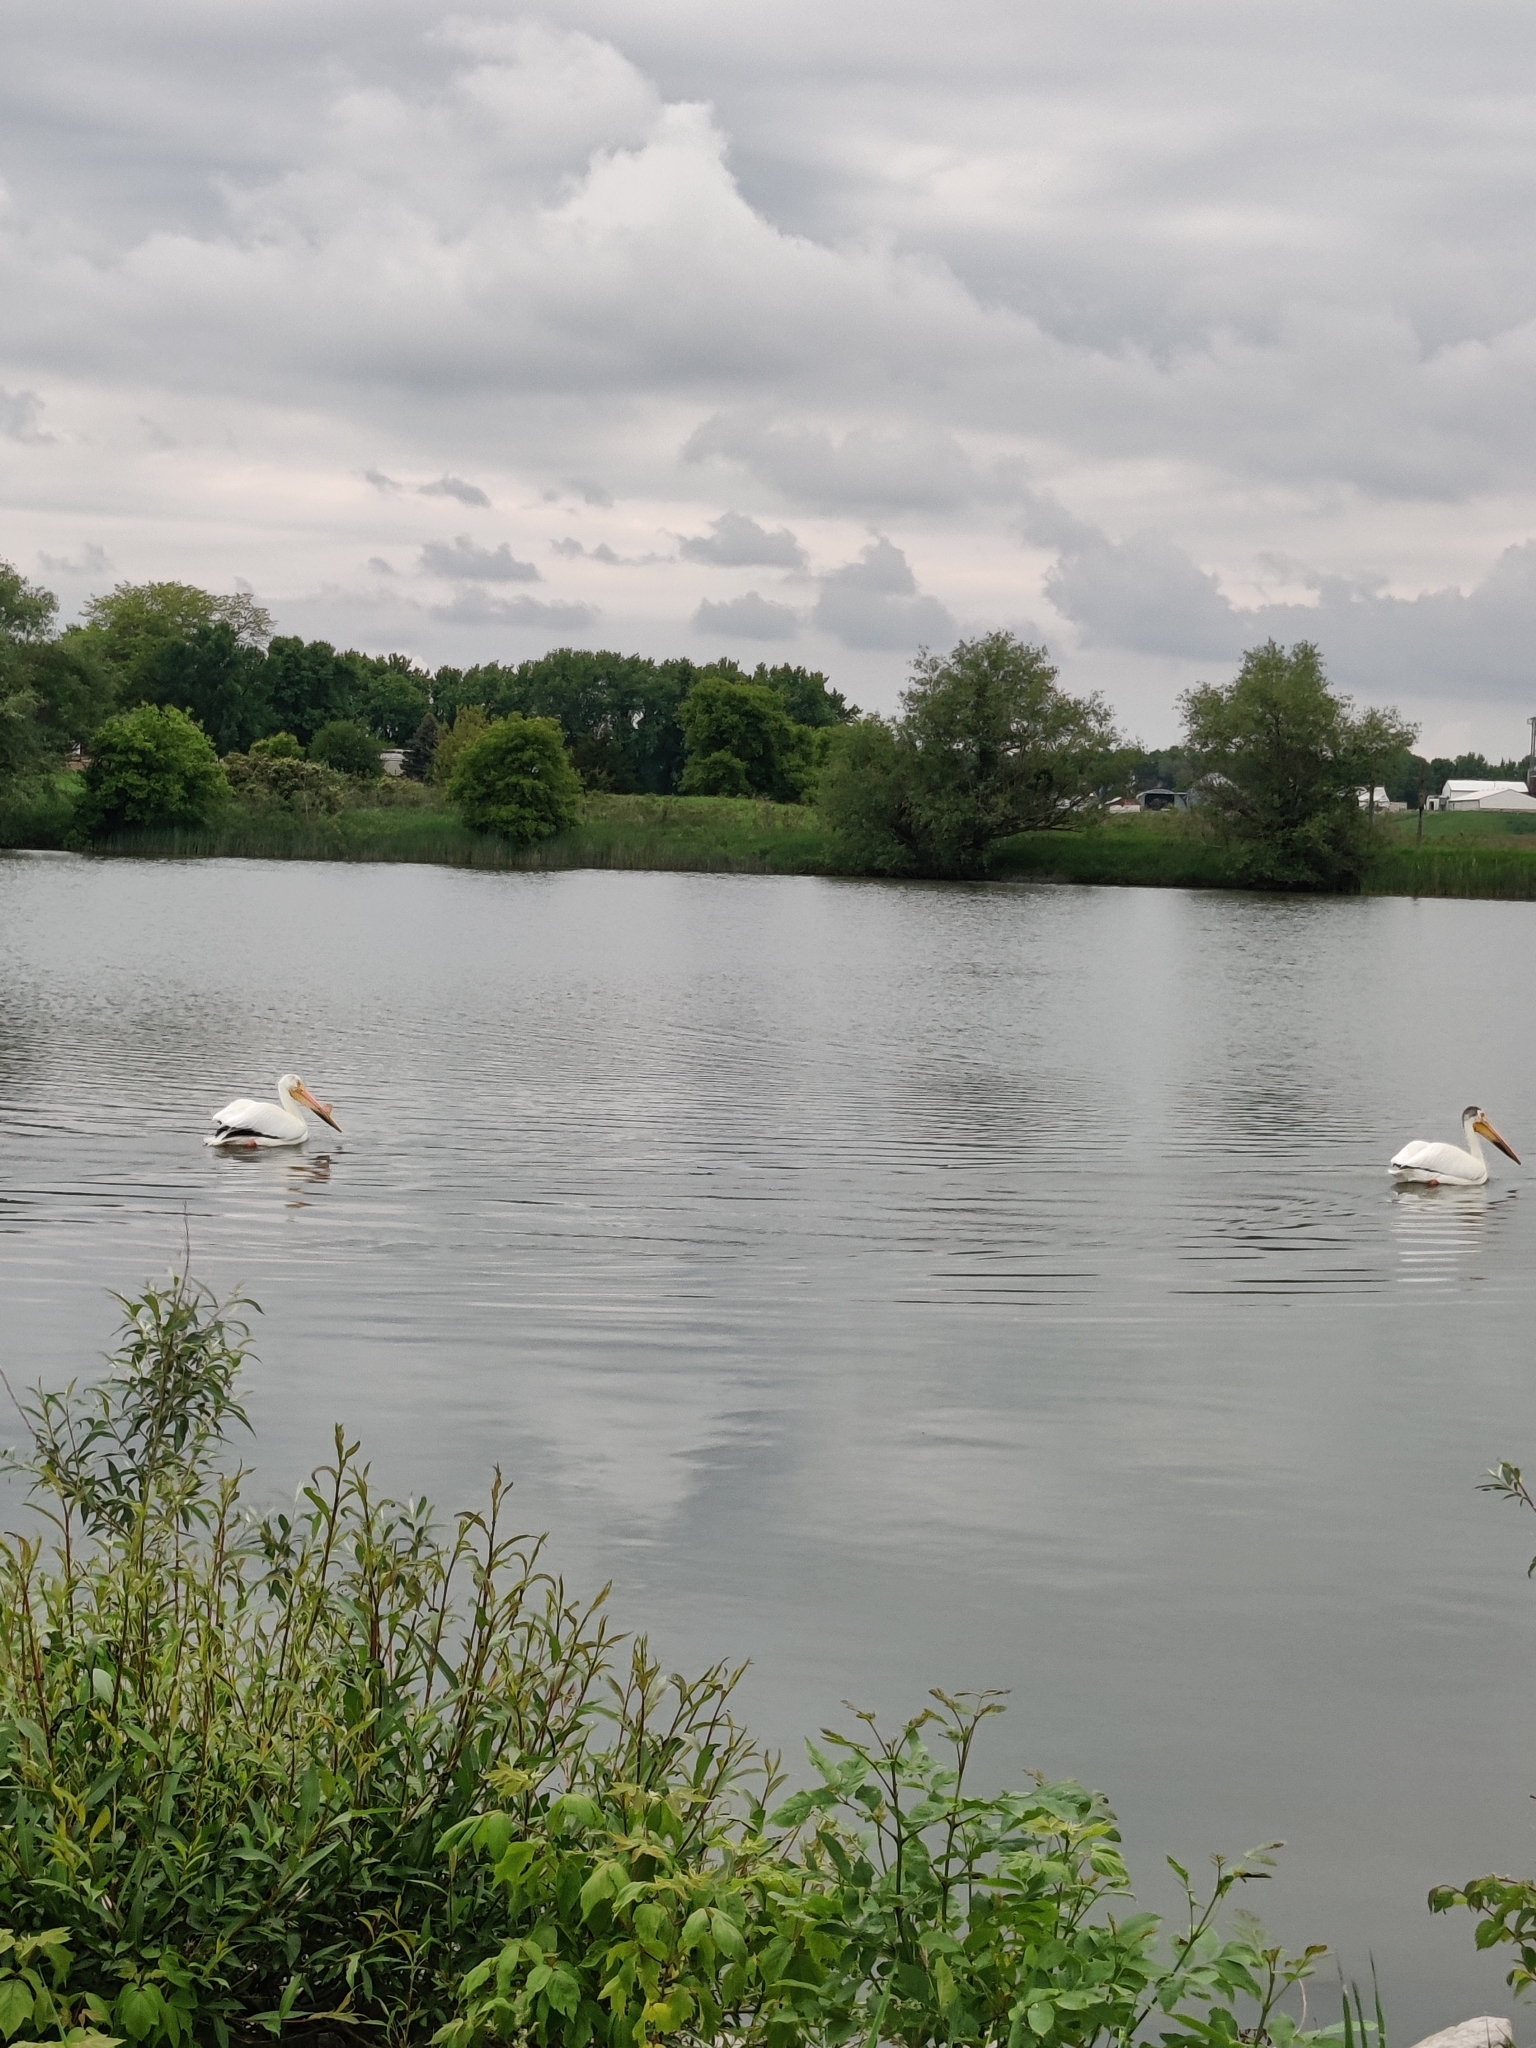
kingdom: Animalia
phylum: Chordata
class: Aves
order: Pelecaniformes
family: Pelecanidae
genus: Pelecanus
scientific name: Pelecanus erythrorhynchos
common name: American white pelican
